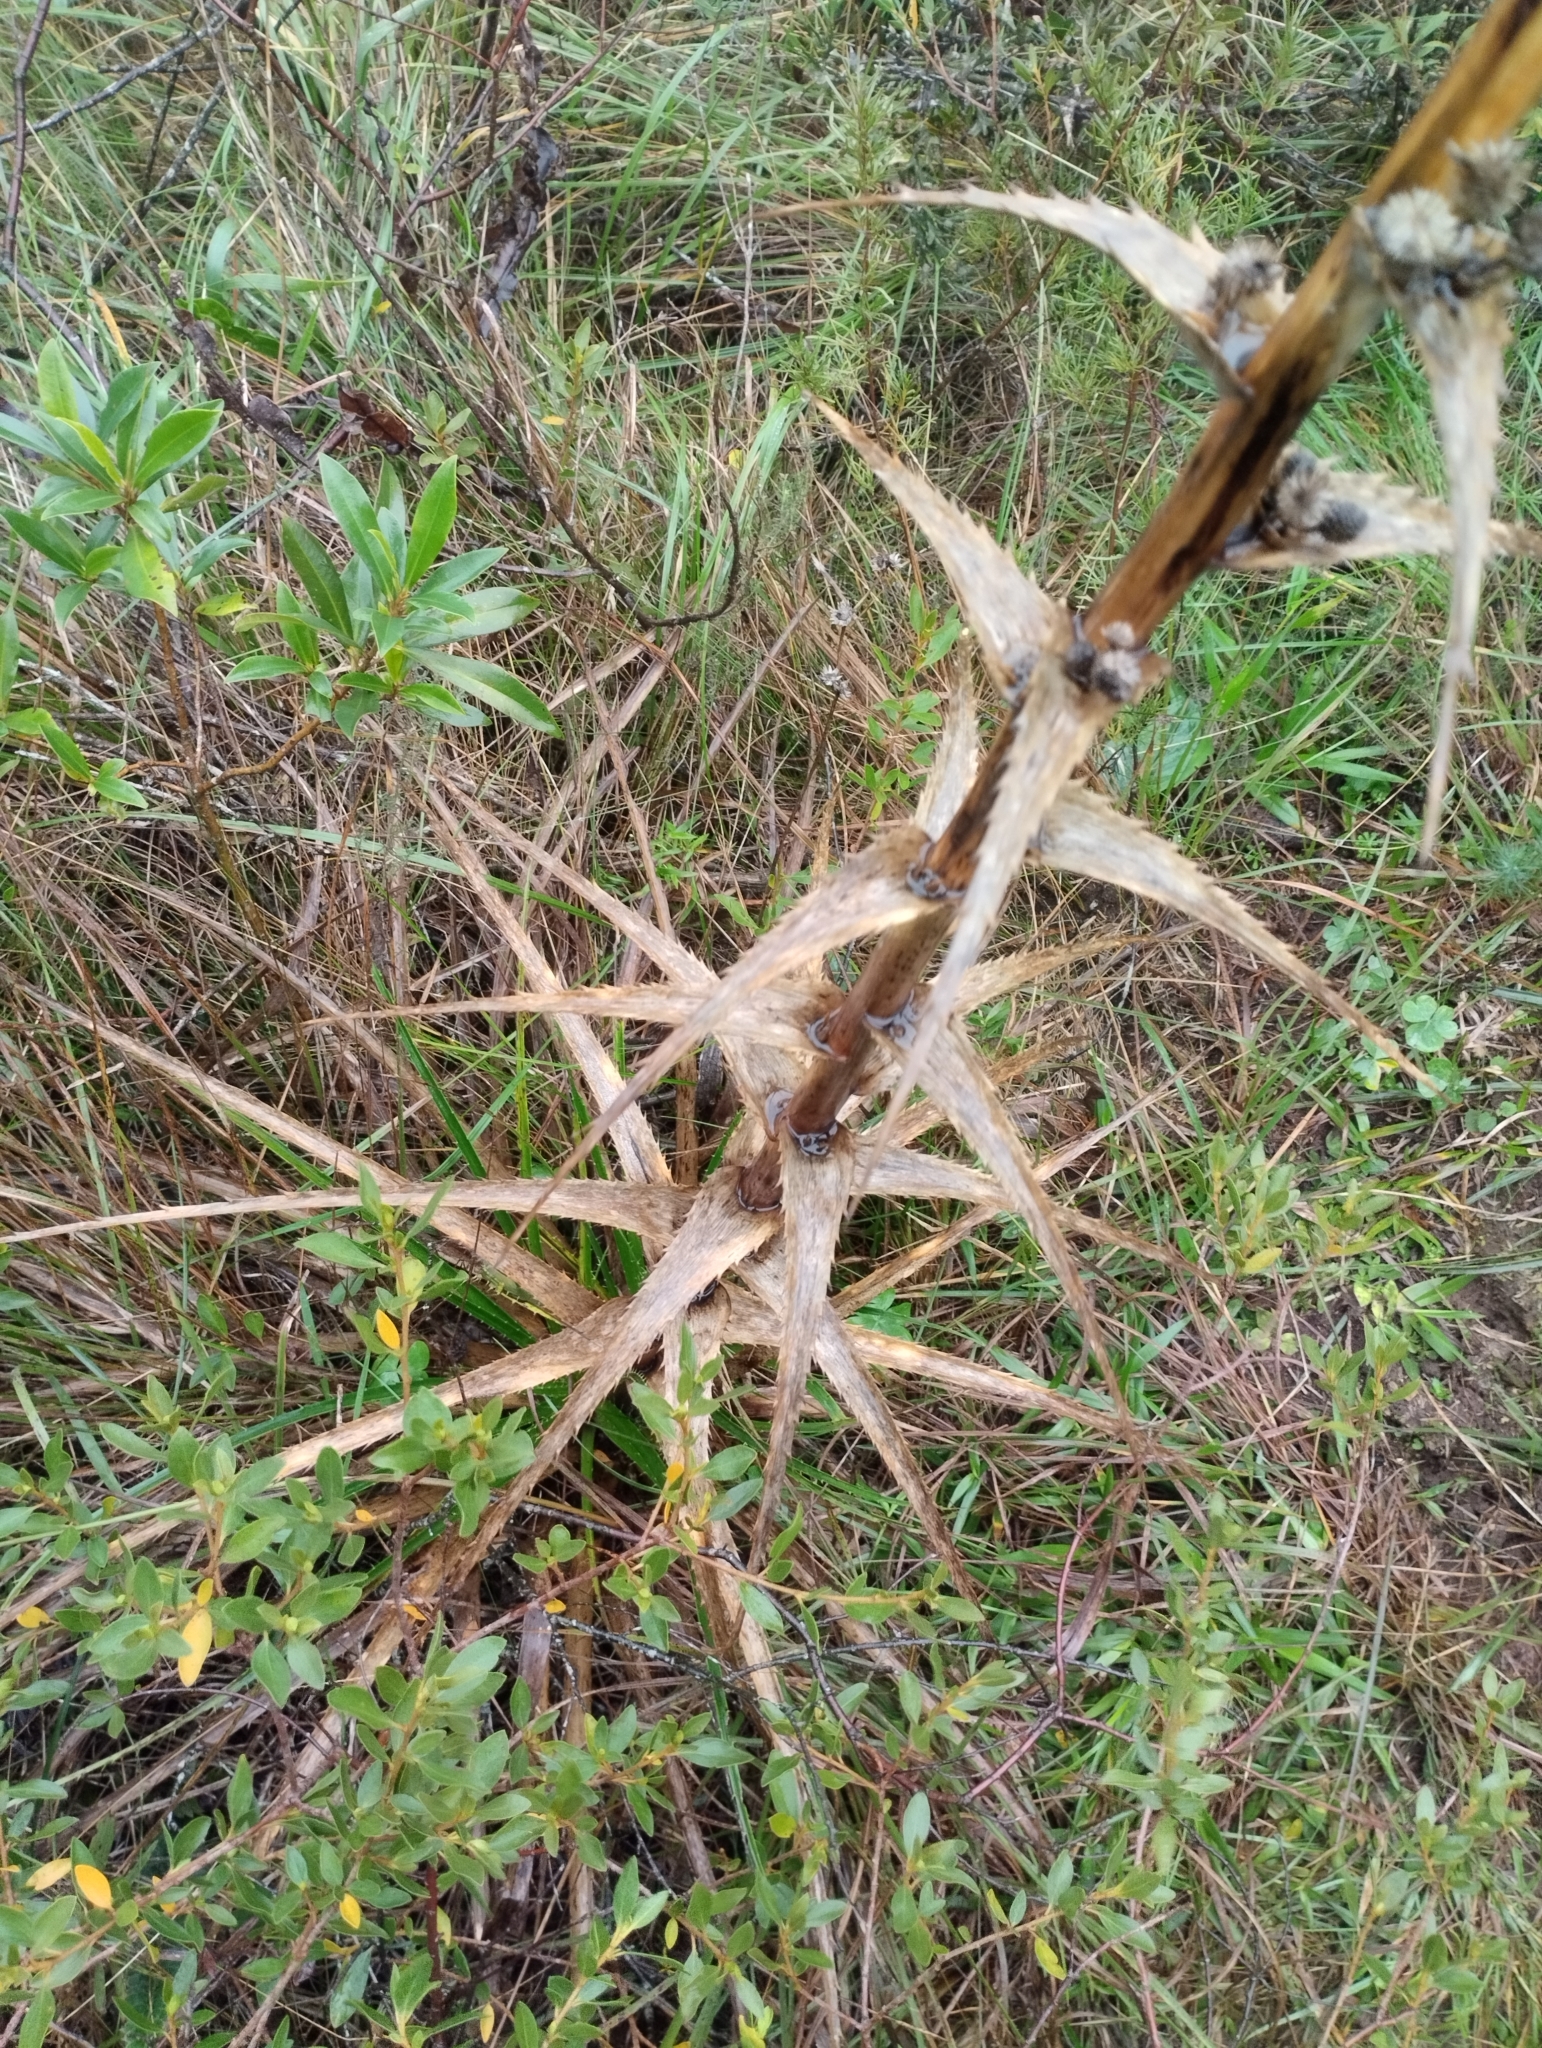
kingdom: Plantae
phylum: Tracheophyta
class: Magnoliopsida
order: Apiales
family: Apiaceae
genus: Eryngium
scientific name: Eryngium horridum
